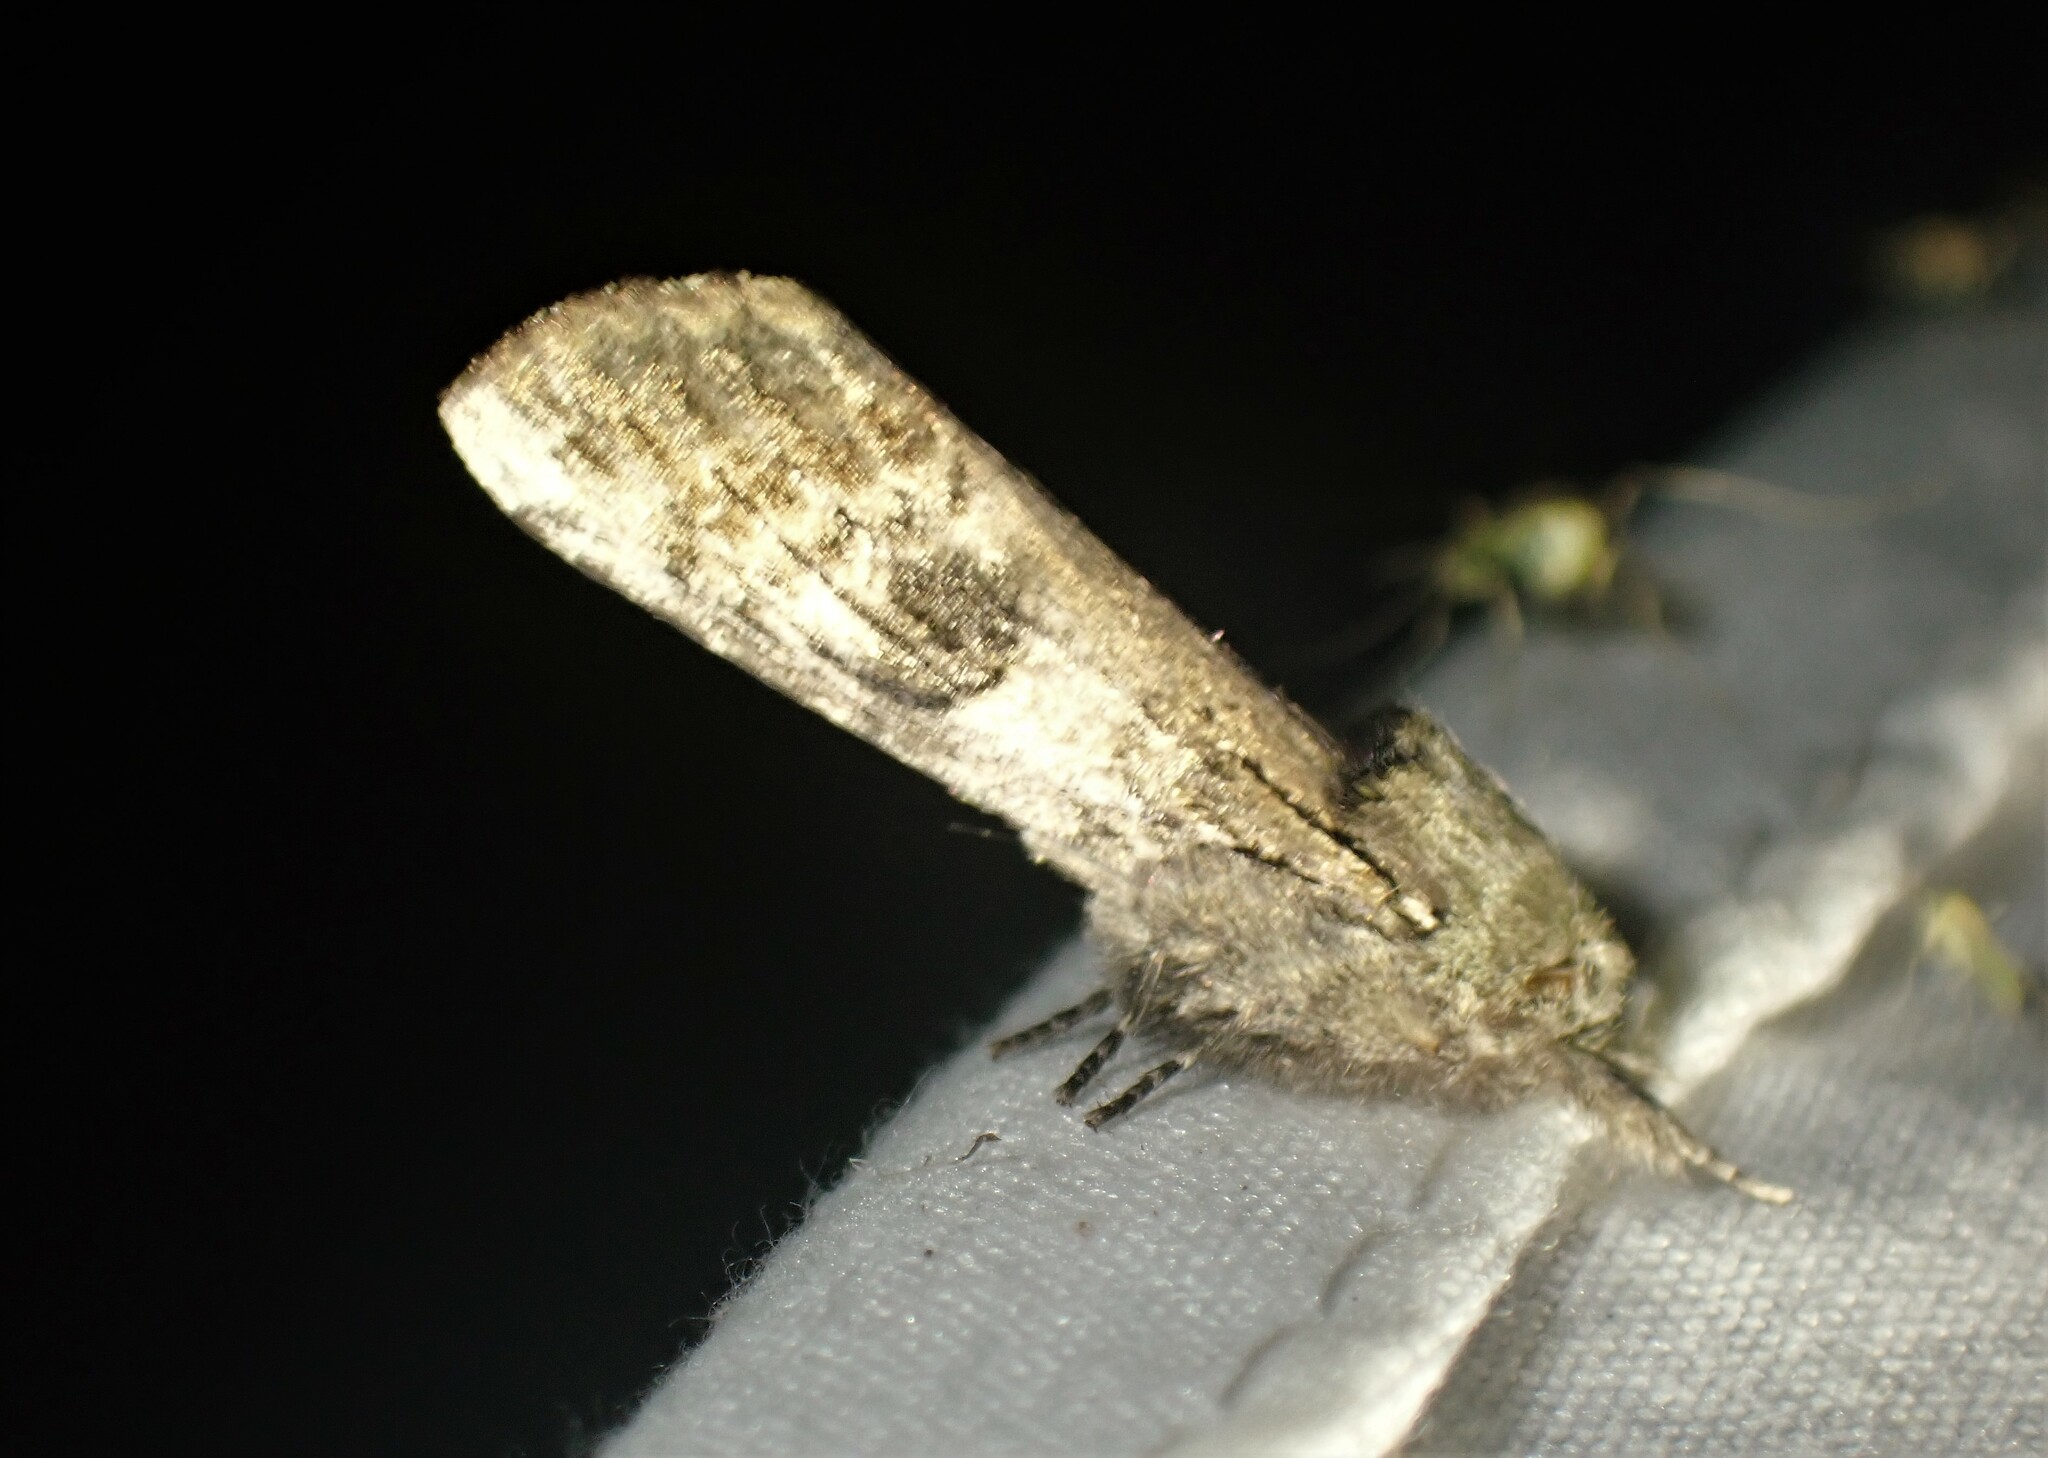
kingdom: Animalia
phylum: Arthropoda
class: Insecta
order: Lepidoptera
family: Notodontidae
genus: Schizura
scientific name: Schizura
